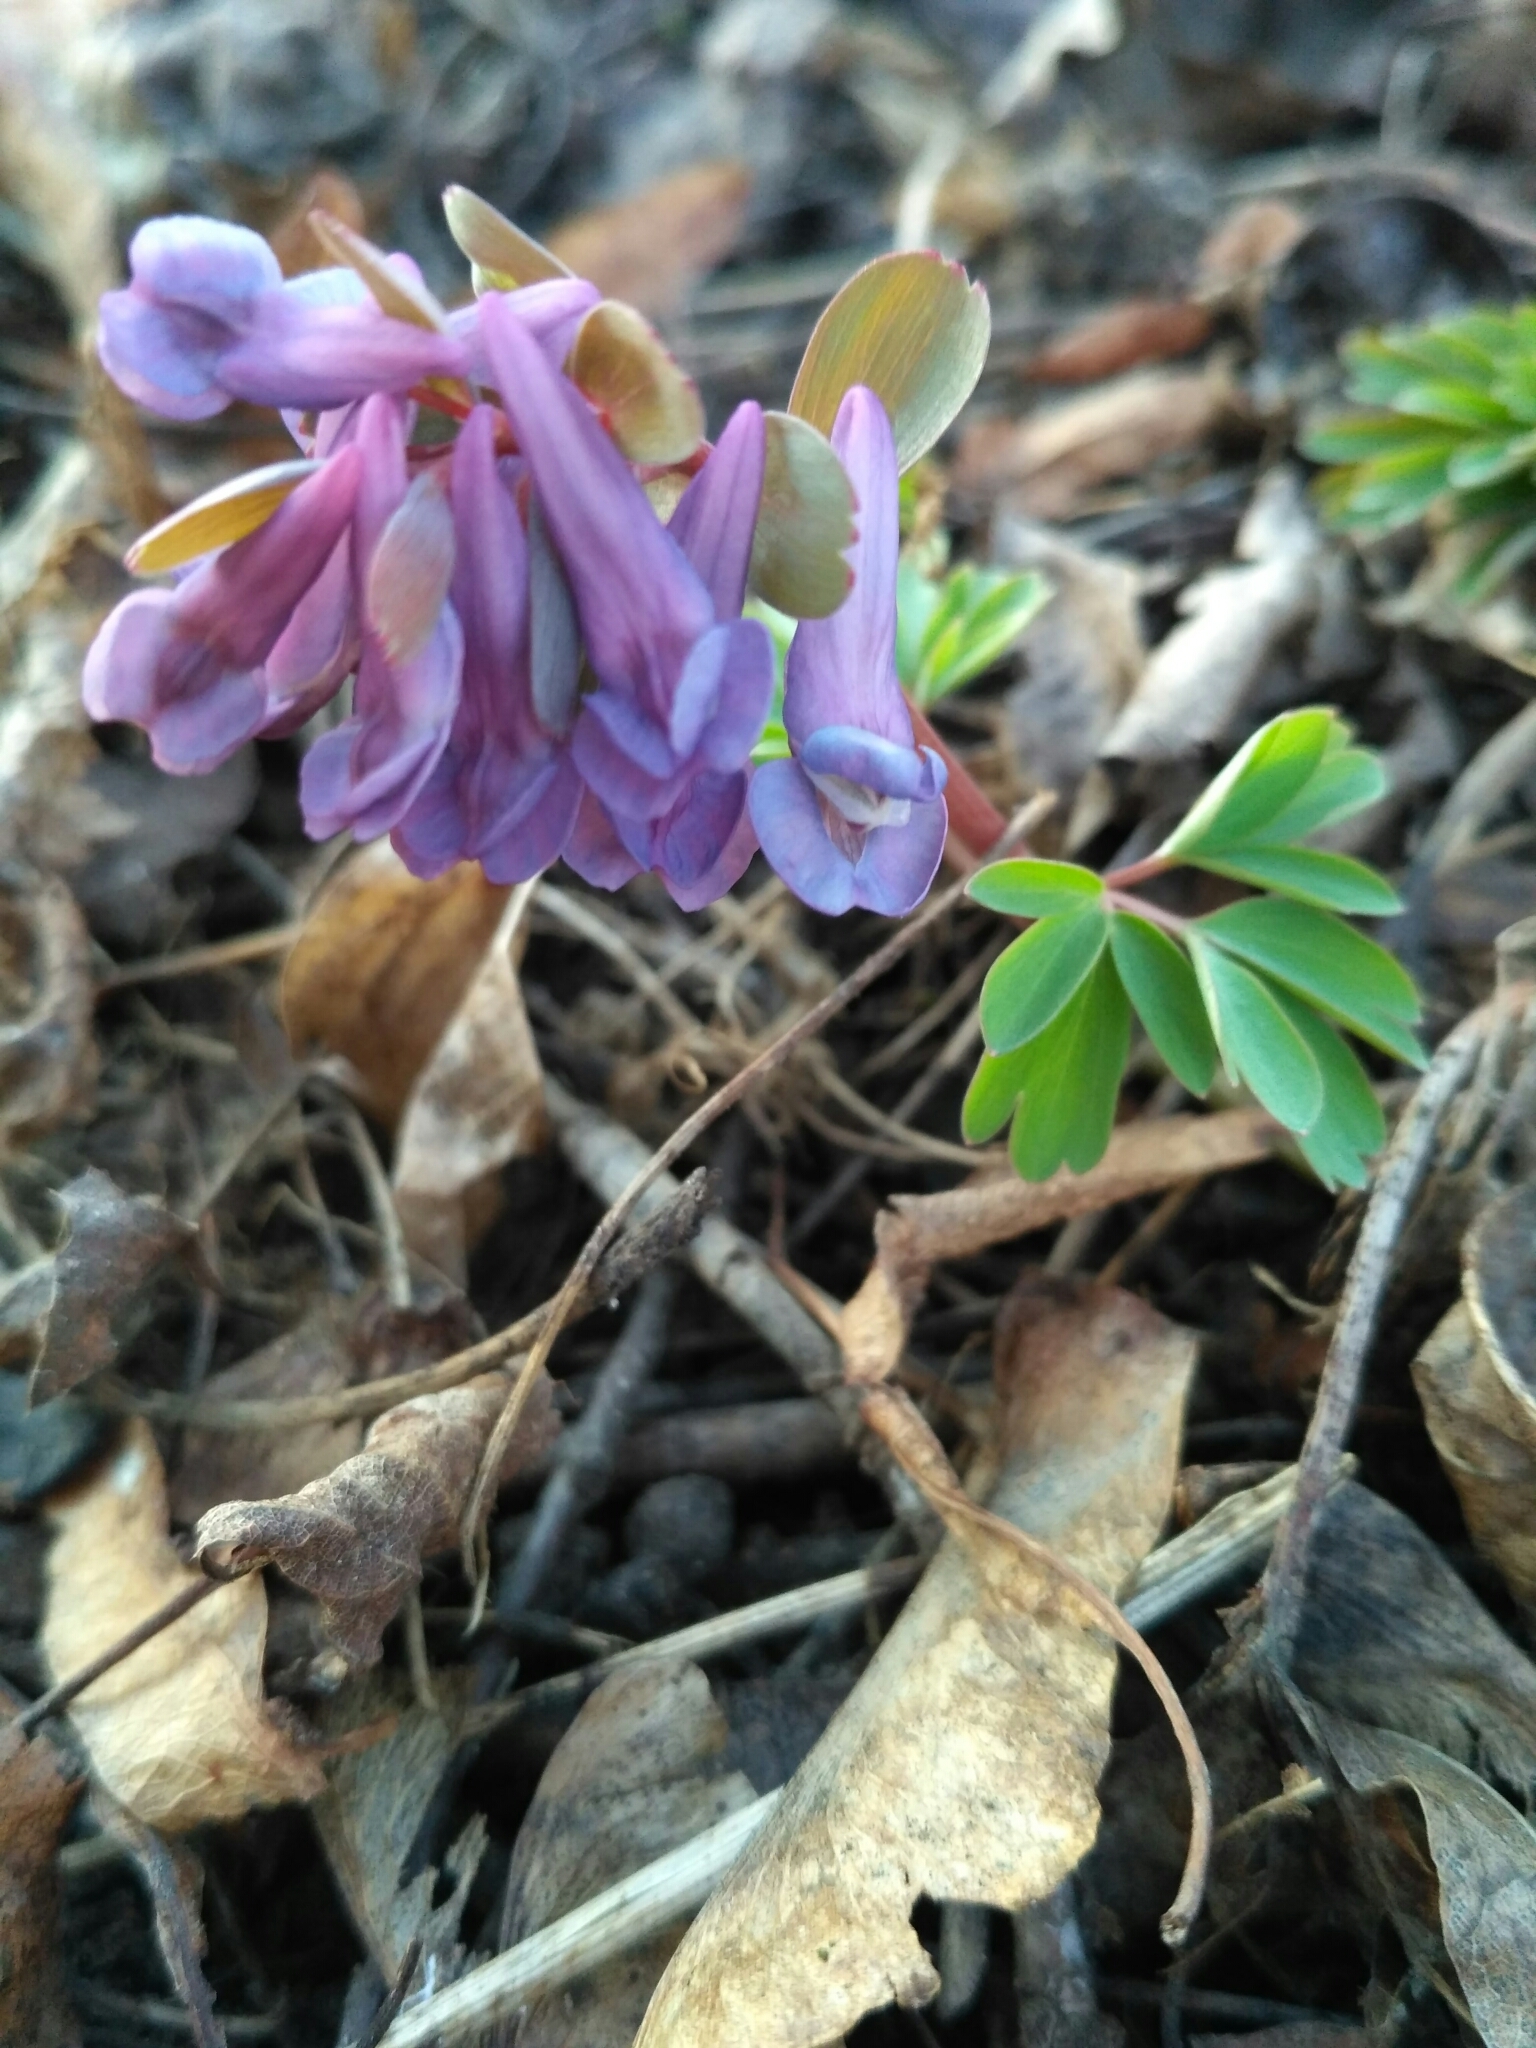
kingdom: Plantae
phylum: Tracheophyta
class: Magnoliopsida
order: Ranunculales
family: Papaveraceae
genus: Corydalis
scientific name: Corydalis solida
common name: Bird-in-a-bush
